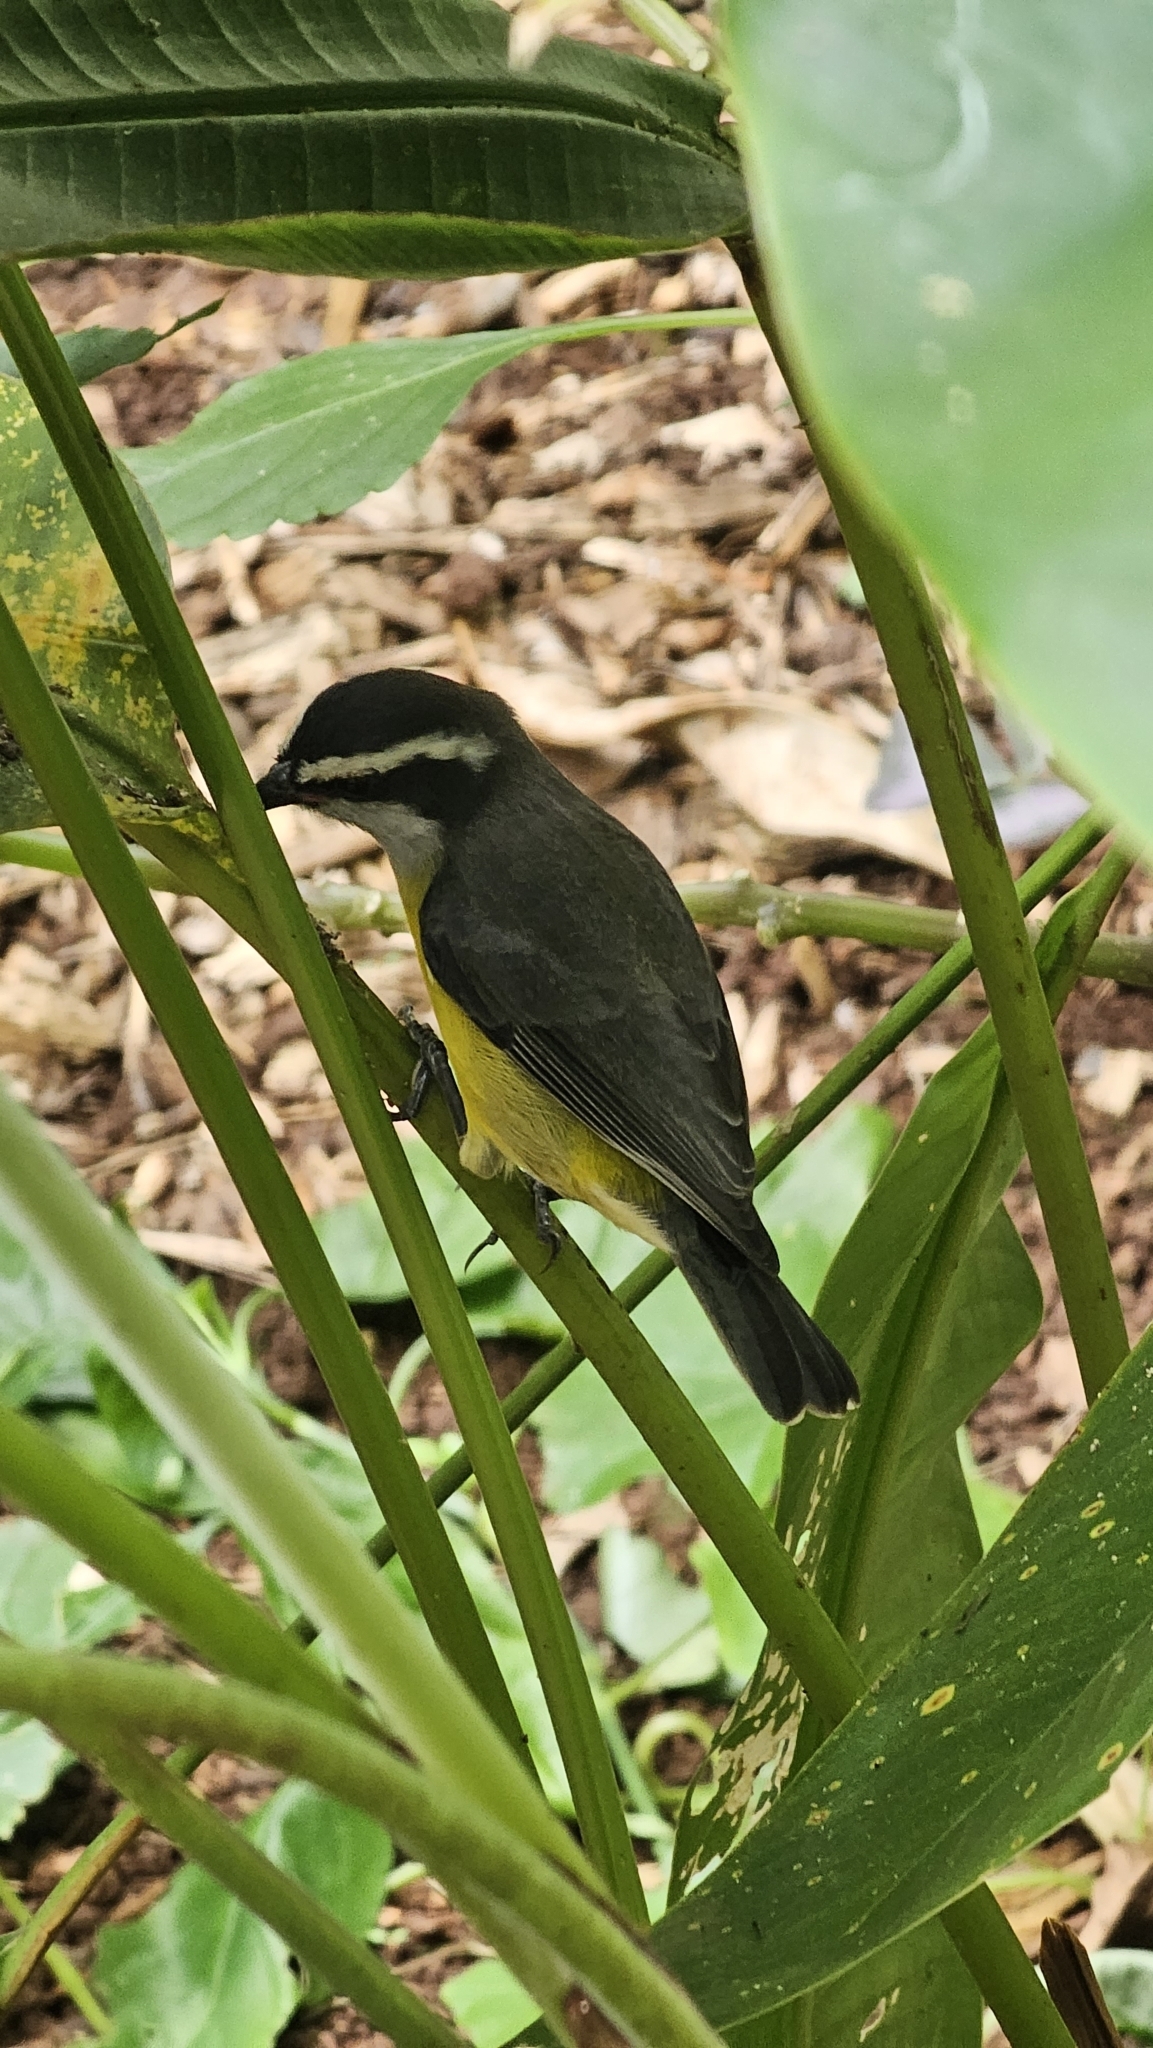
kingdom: Animalia
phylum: Chordata
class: Aves
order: Passeriformes
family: Thraupidae
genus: Coereba
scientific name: Coereba flaveola
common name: Bananaquit
